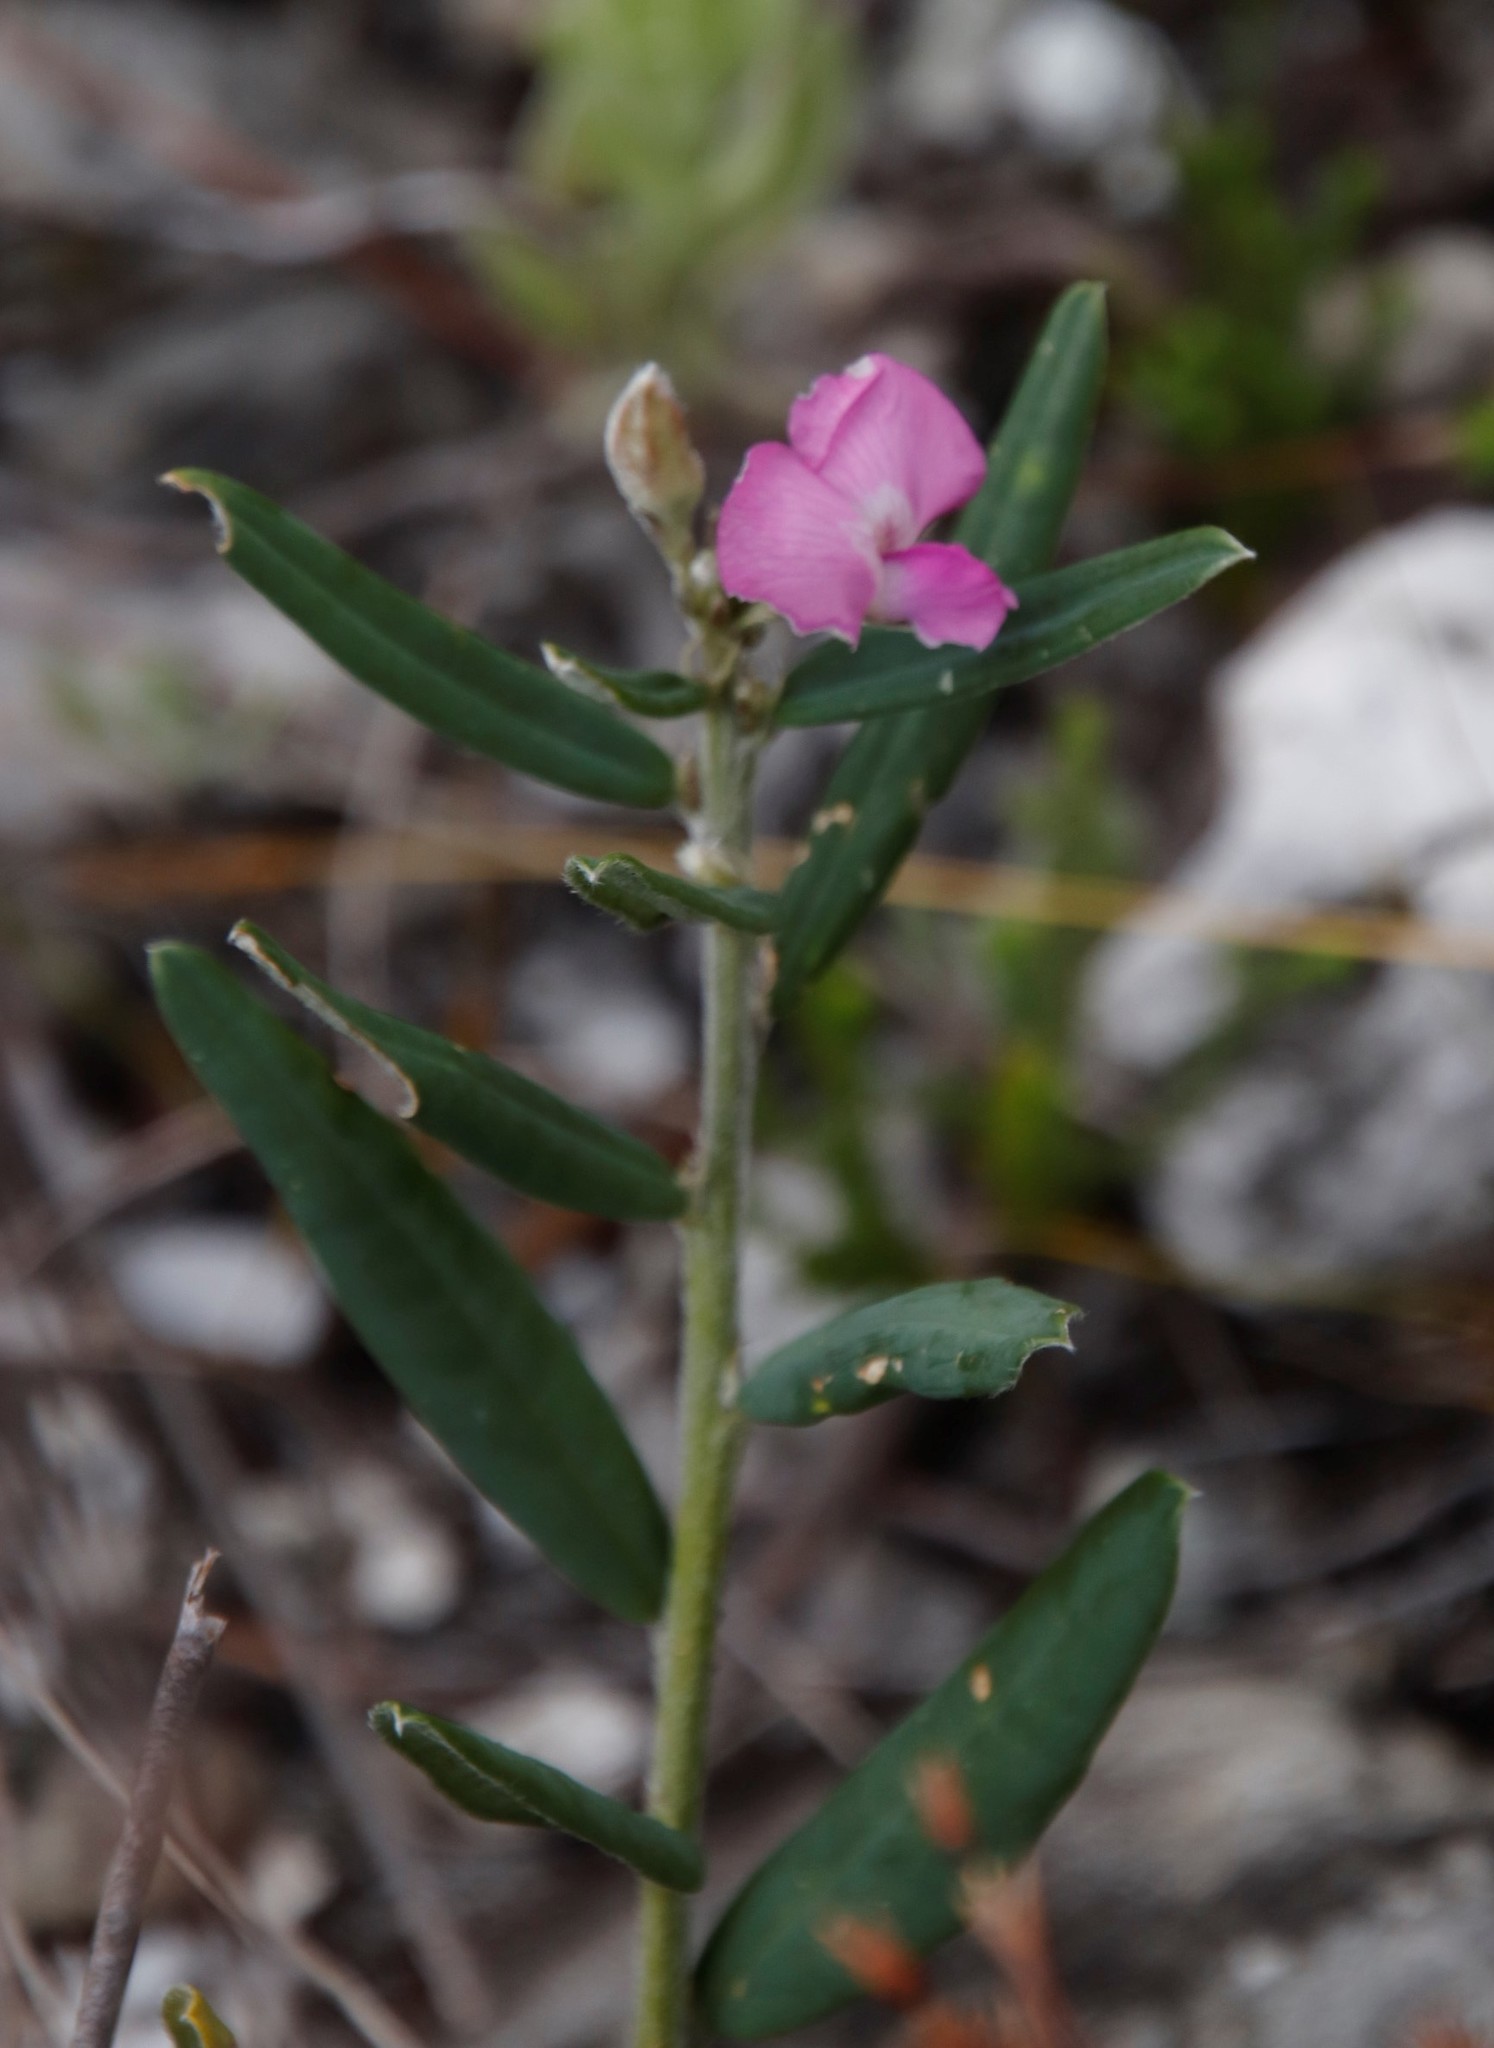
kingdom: Plantae
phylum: Tracheophyta
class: Magnoliopsida
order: Fabales
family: Fabaceae
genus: Podalyria
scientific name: Podalyria oleifolia
